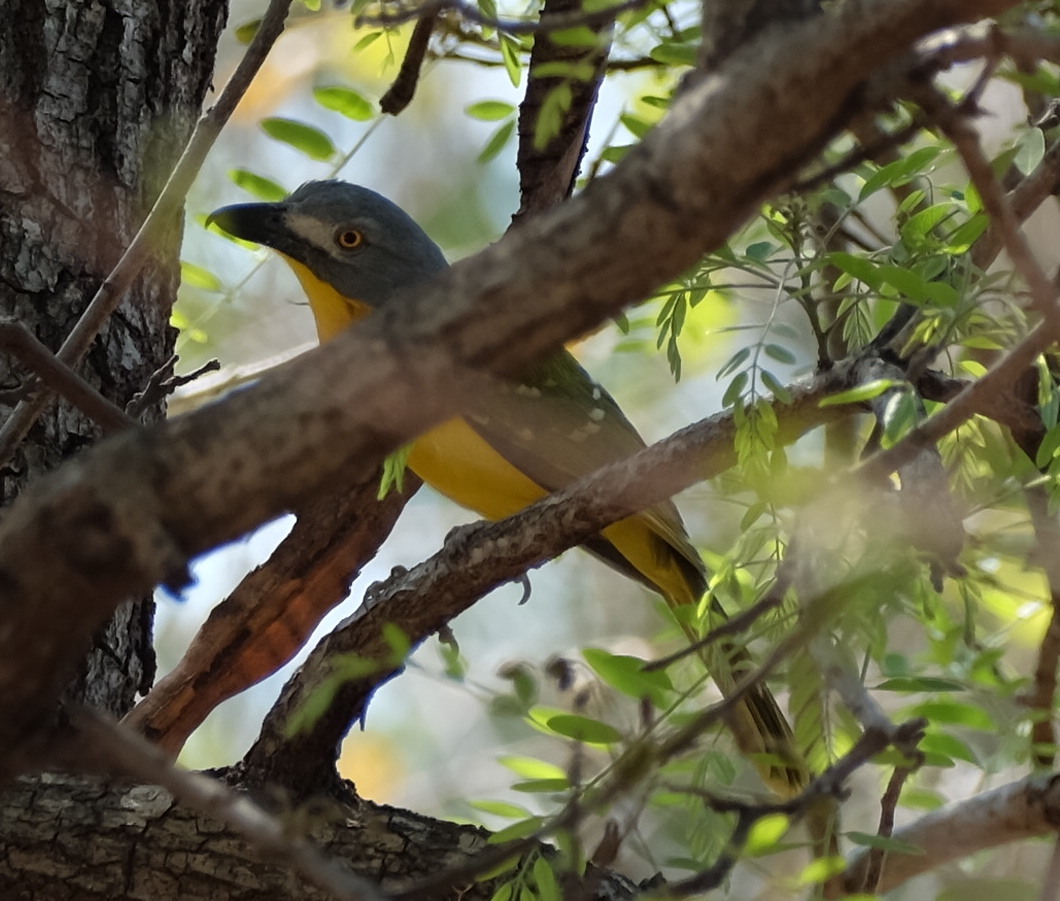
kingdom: Animalia
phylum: Chordata
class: Aves
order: Passeriformes
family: Malaconotidae
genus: Malaconotus
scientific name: Malaconotus blanchoti
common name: Grey-headed bushshrike
